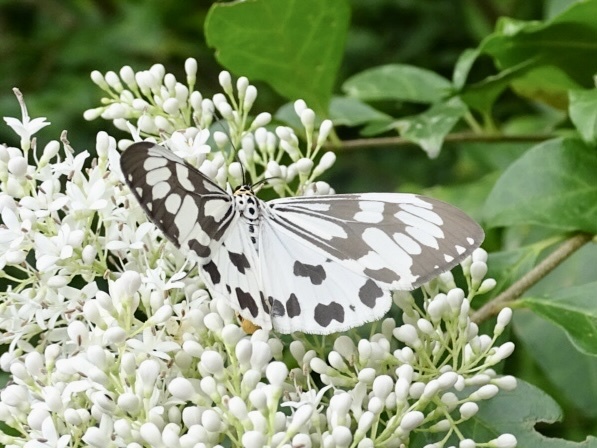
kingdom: Animalia
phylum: Arthropoda
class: Insecta
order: Lepidoptera
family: Erebidae
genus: Nyctemera
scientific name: Nyctemera adversata
